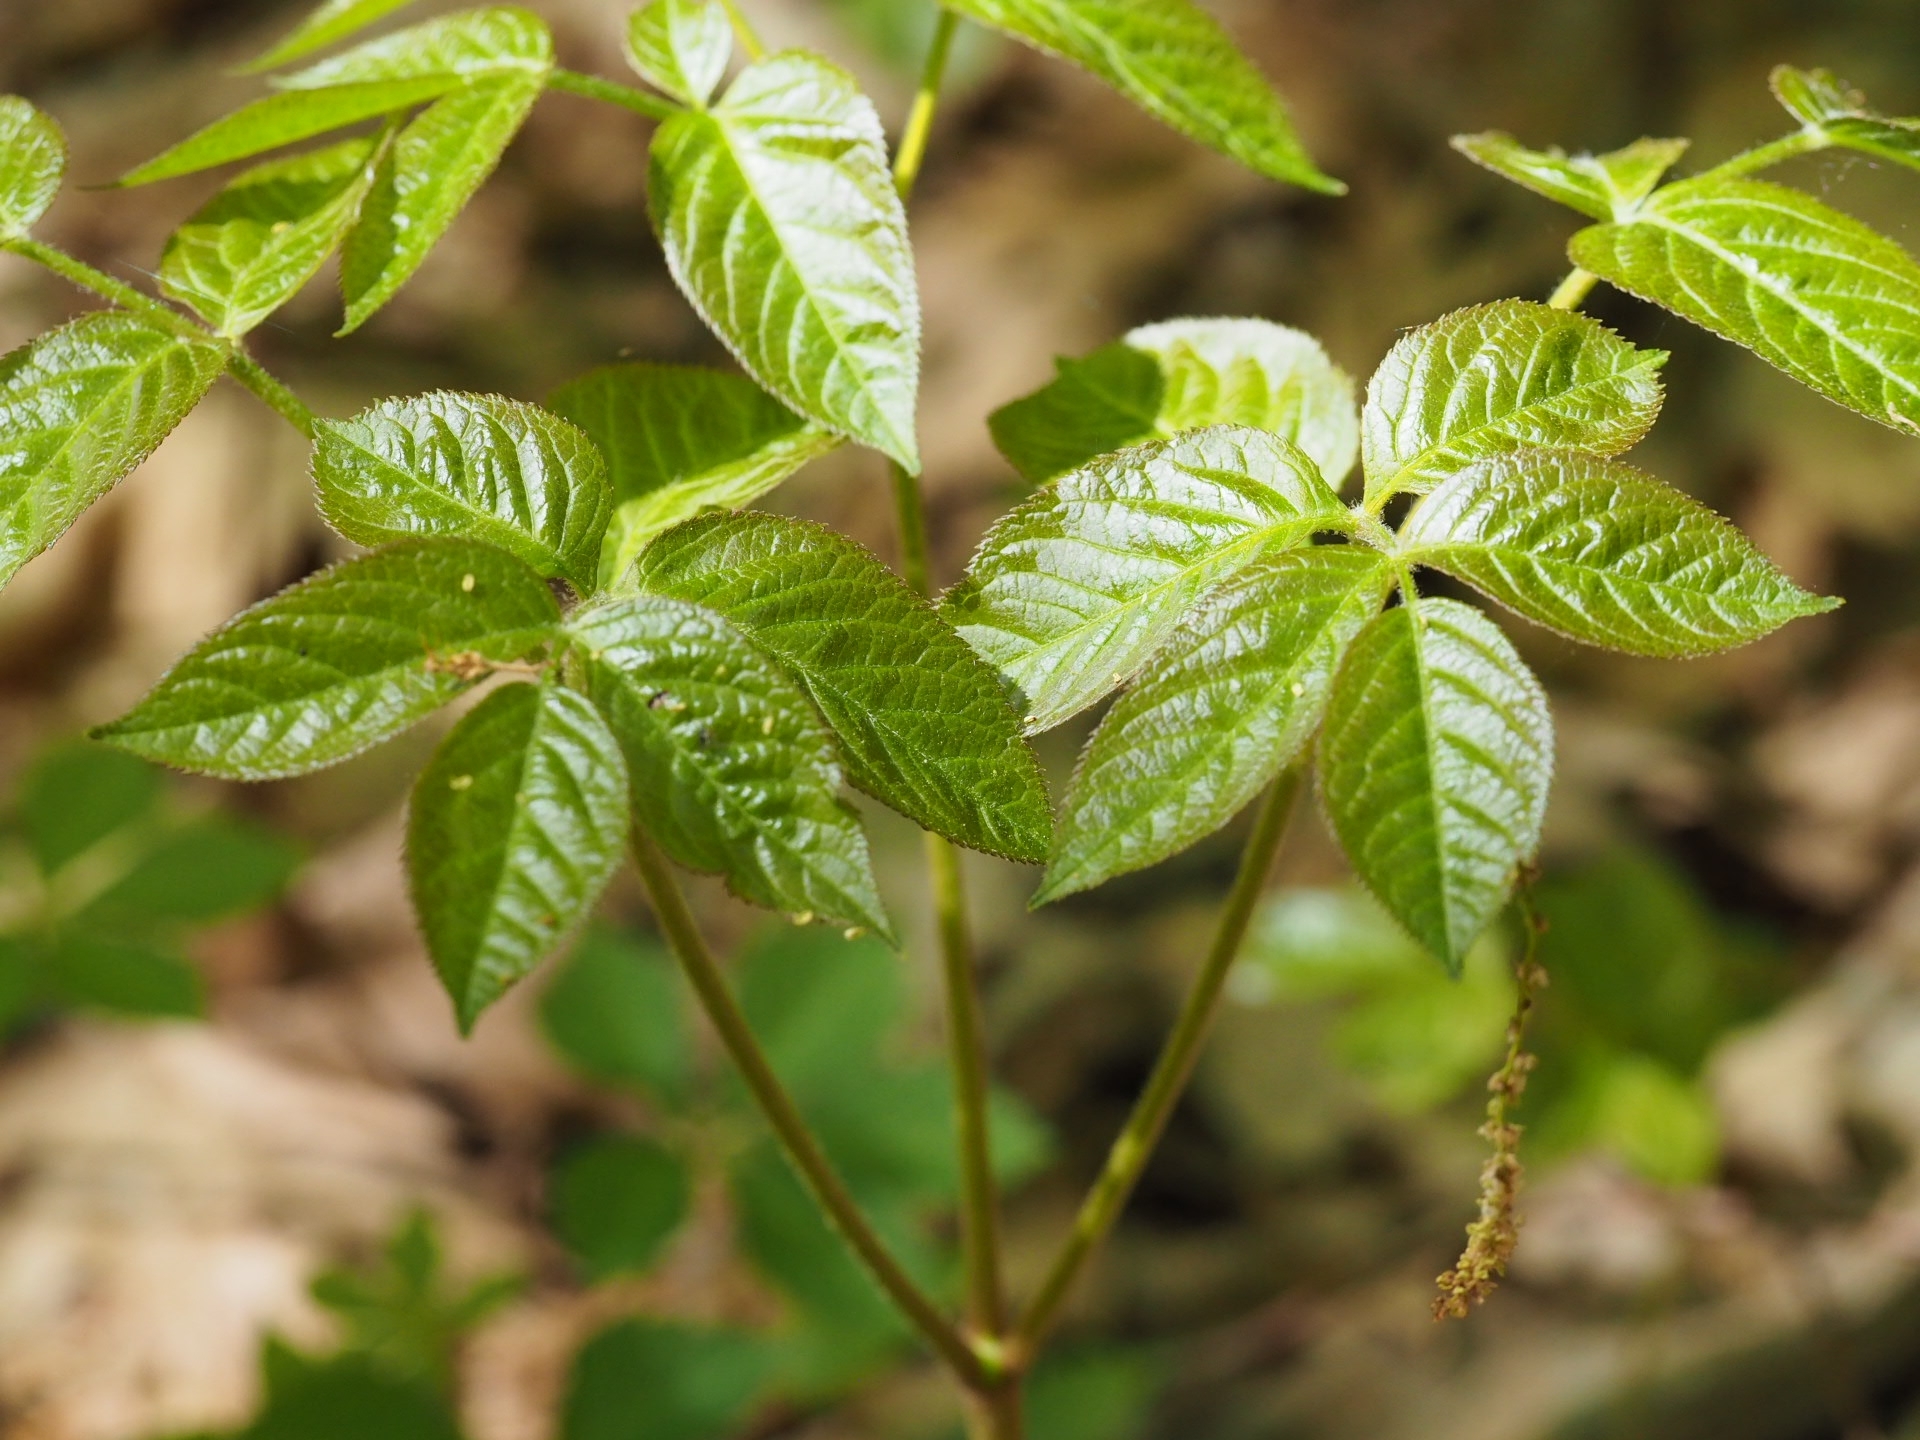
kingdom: Plantae
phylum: Tracheophyta
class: Magnoliopsida
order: Apiales
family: Araliaceae
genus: Aralia
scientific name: Aralia nudicaulis
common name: Wild sarsaparilla
